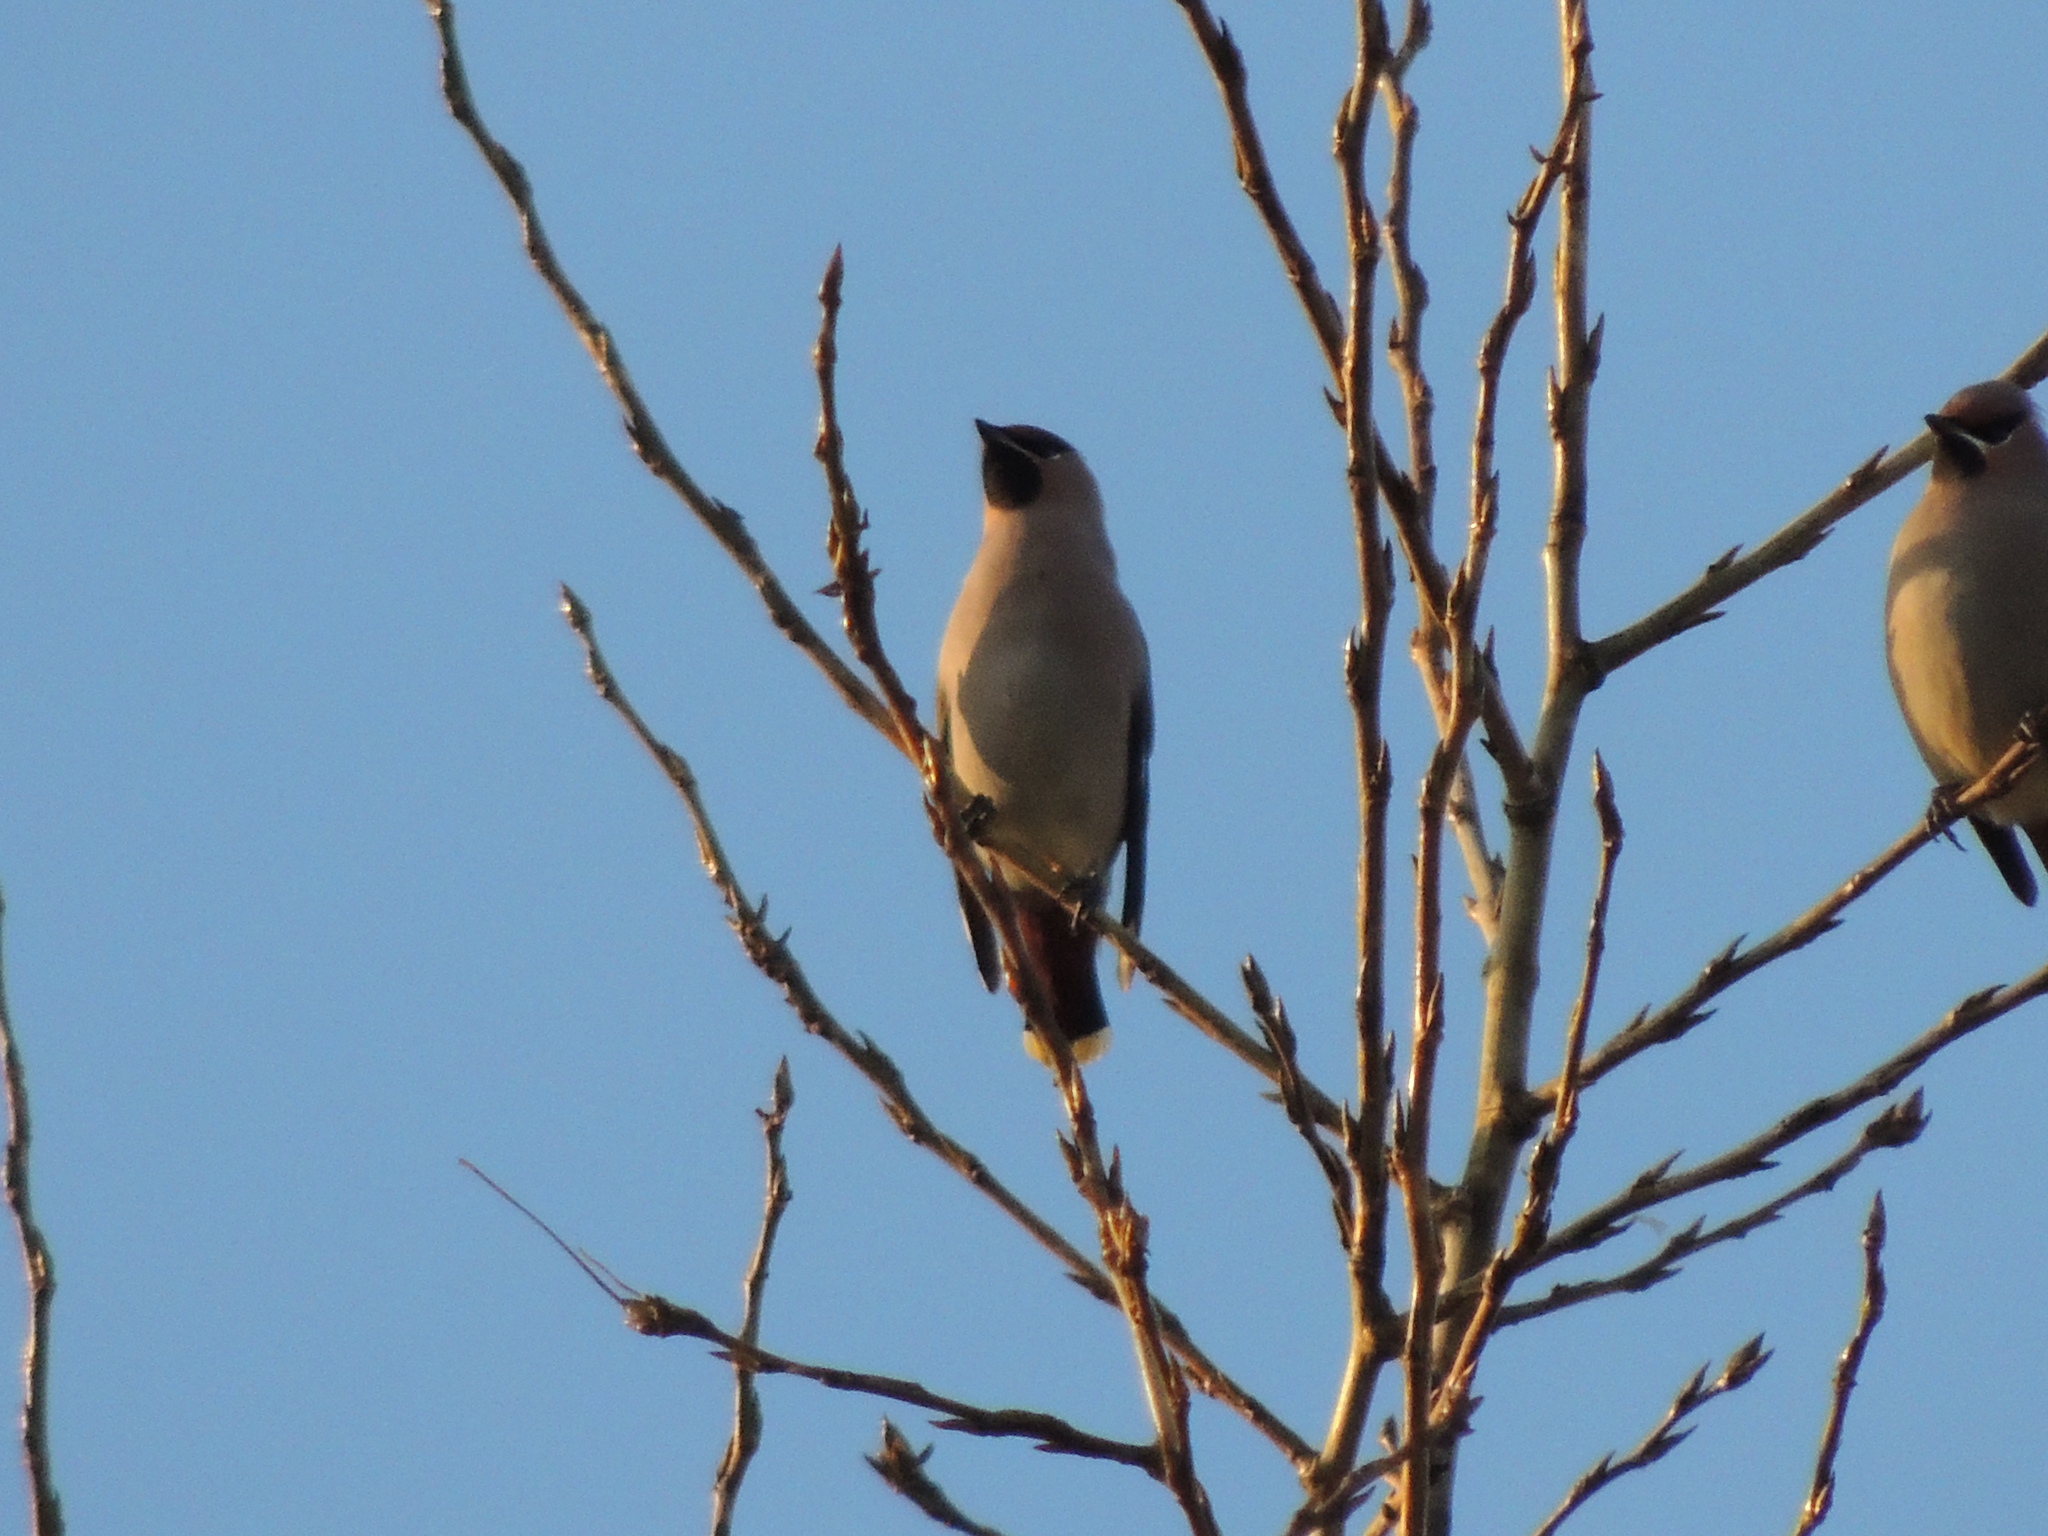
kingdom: Animalia
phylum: Chordata
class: Aves
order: Passeriformes
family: Bombycillidae
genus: Bombycilla
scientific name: Bombycilla garrulus
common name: Bohemian waxwing
